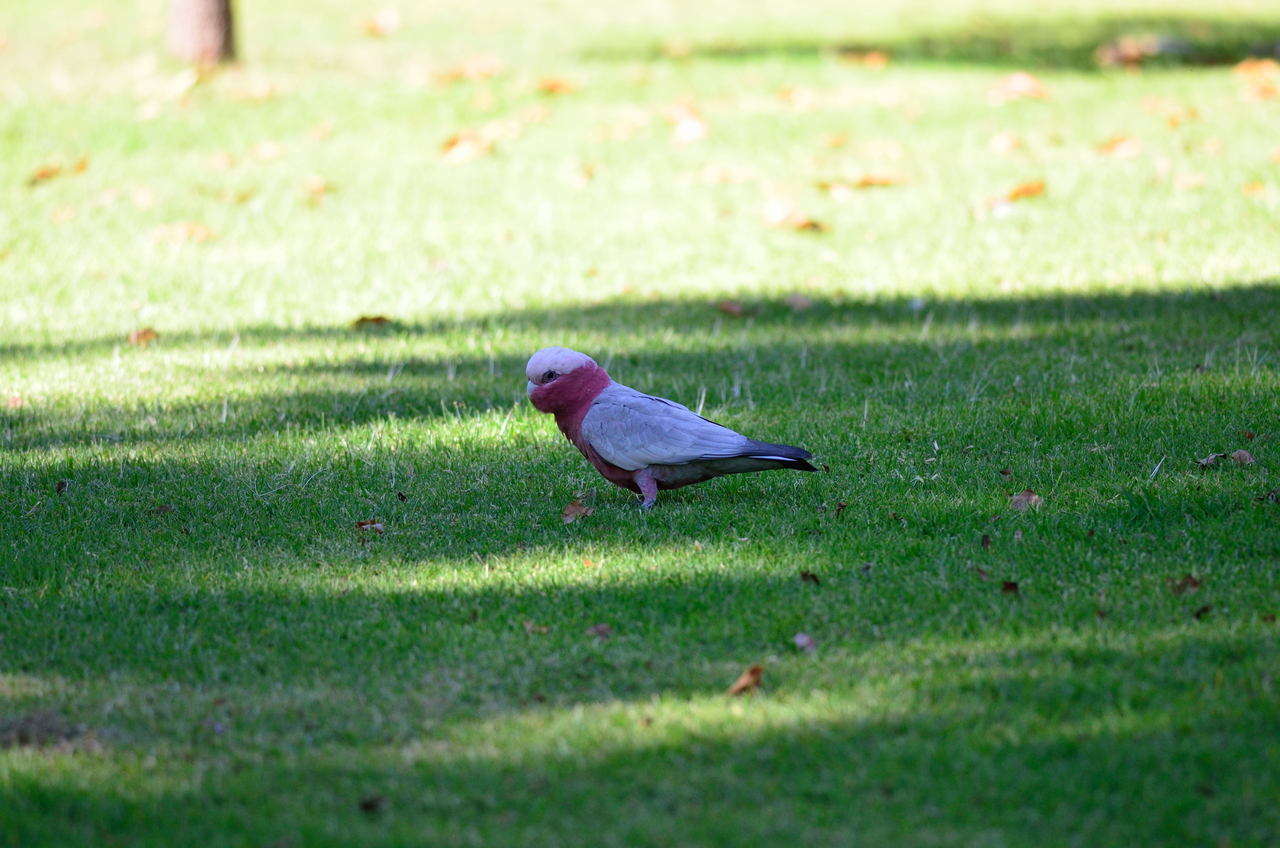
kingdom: Animalia
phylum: Chordata
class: Aves
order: Psittaciformes
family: Psittacidae
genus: Eolophus
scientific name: Eolophus roseicapilla
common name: Galah
